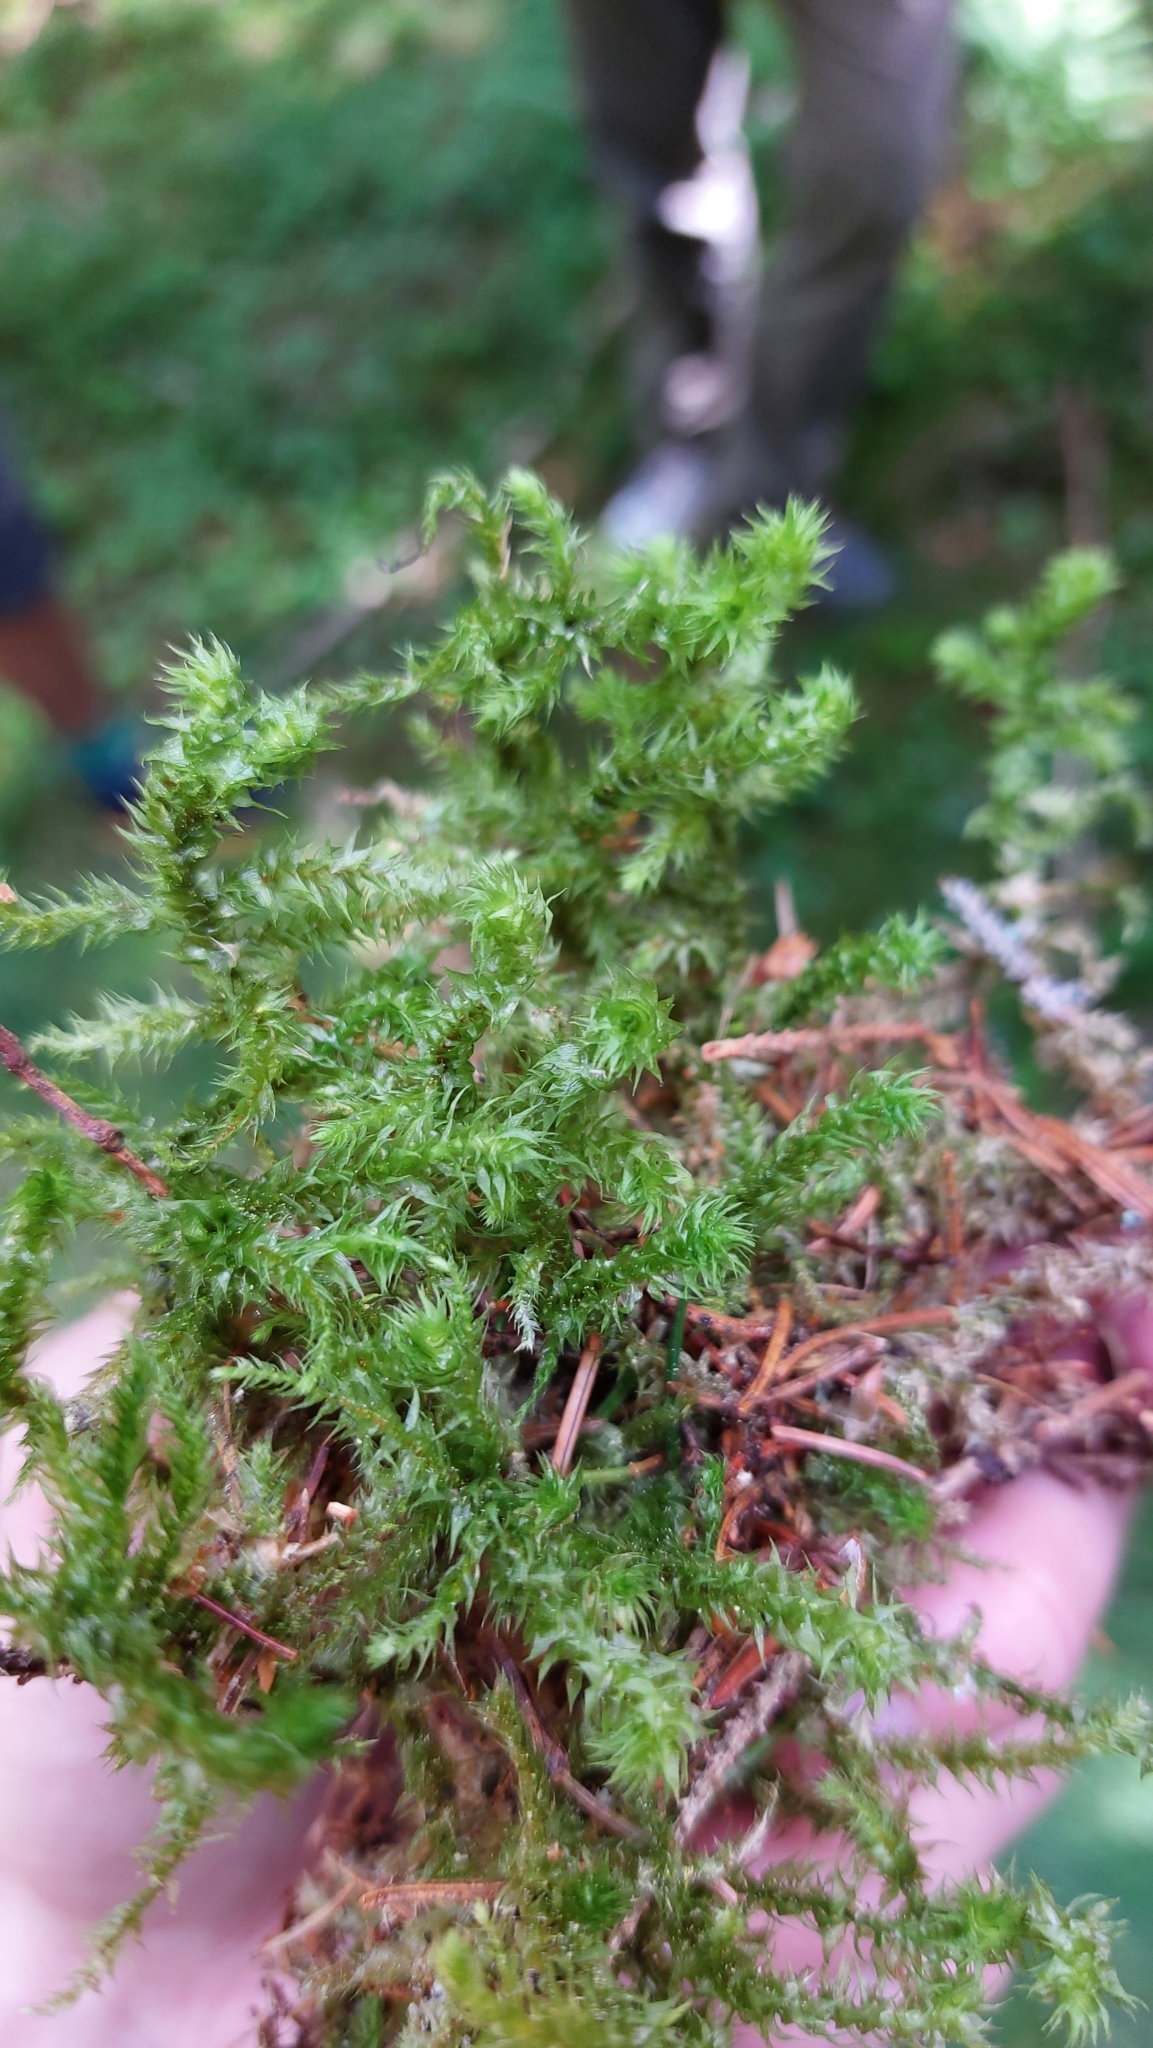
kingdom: Plantae
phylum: Bryophyta
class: Bryopsida
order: Hypnales
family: Hylocomiaceae
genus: Hylocomiadelphus
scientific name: Hylocomiadelphus triquetrus
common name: Rough goose neck moss
